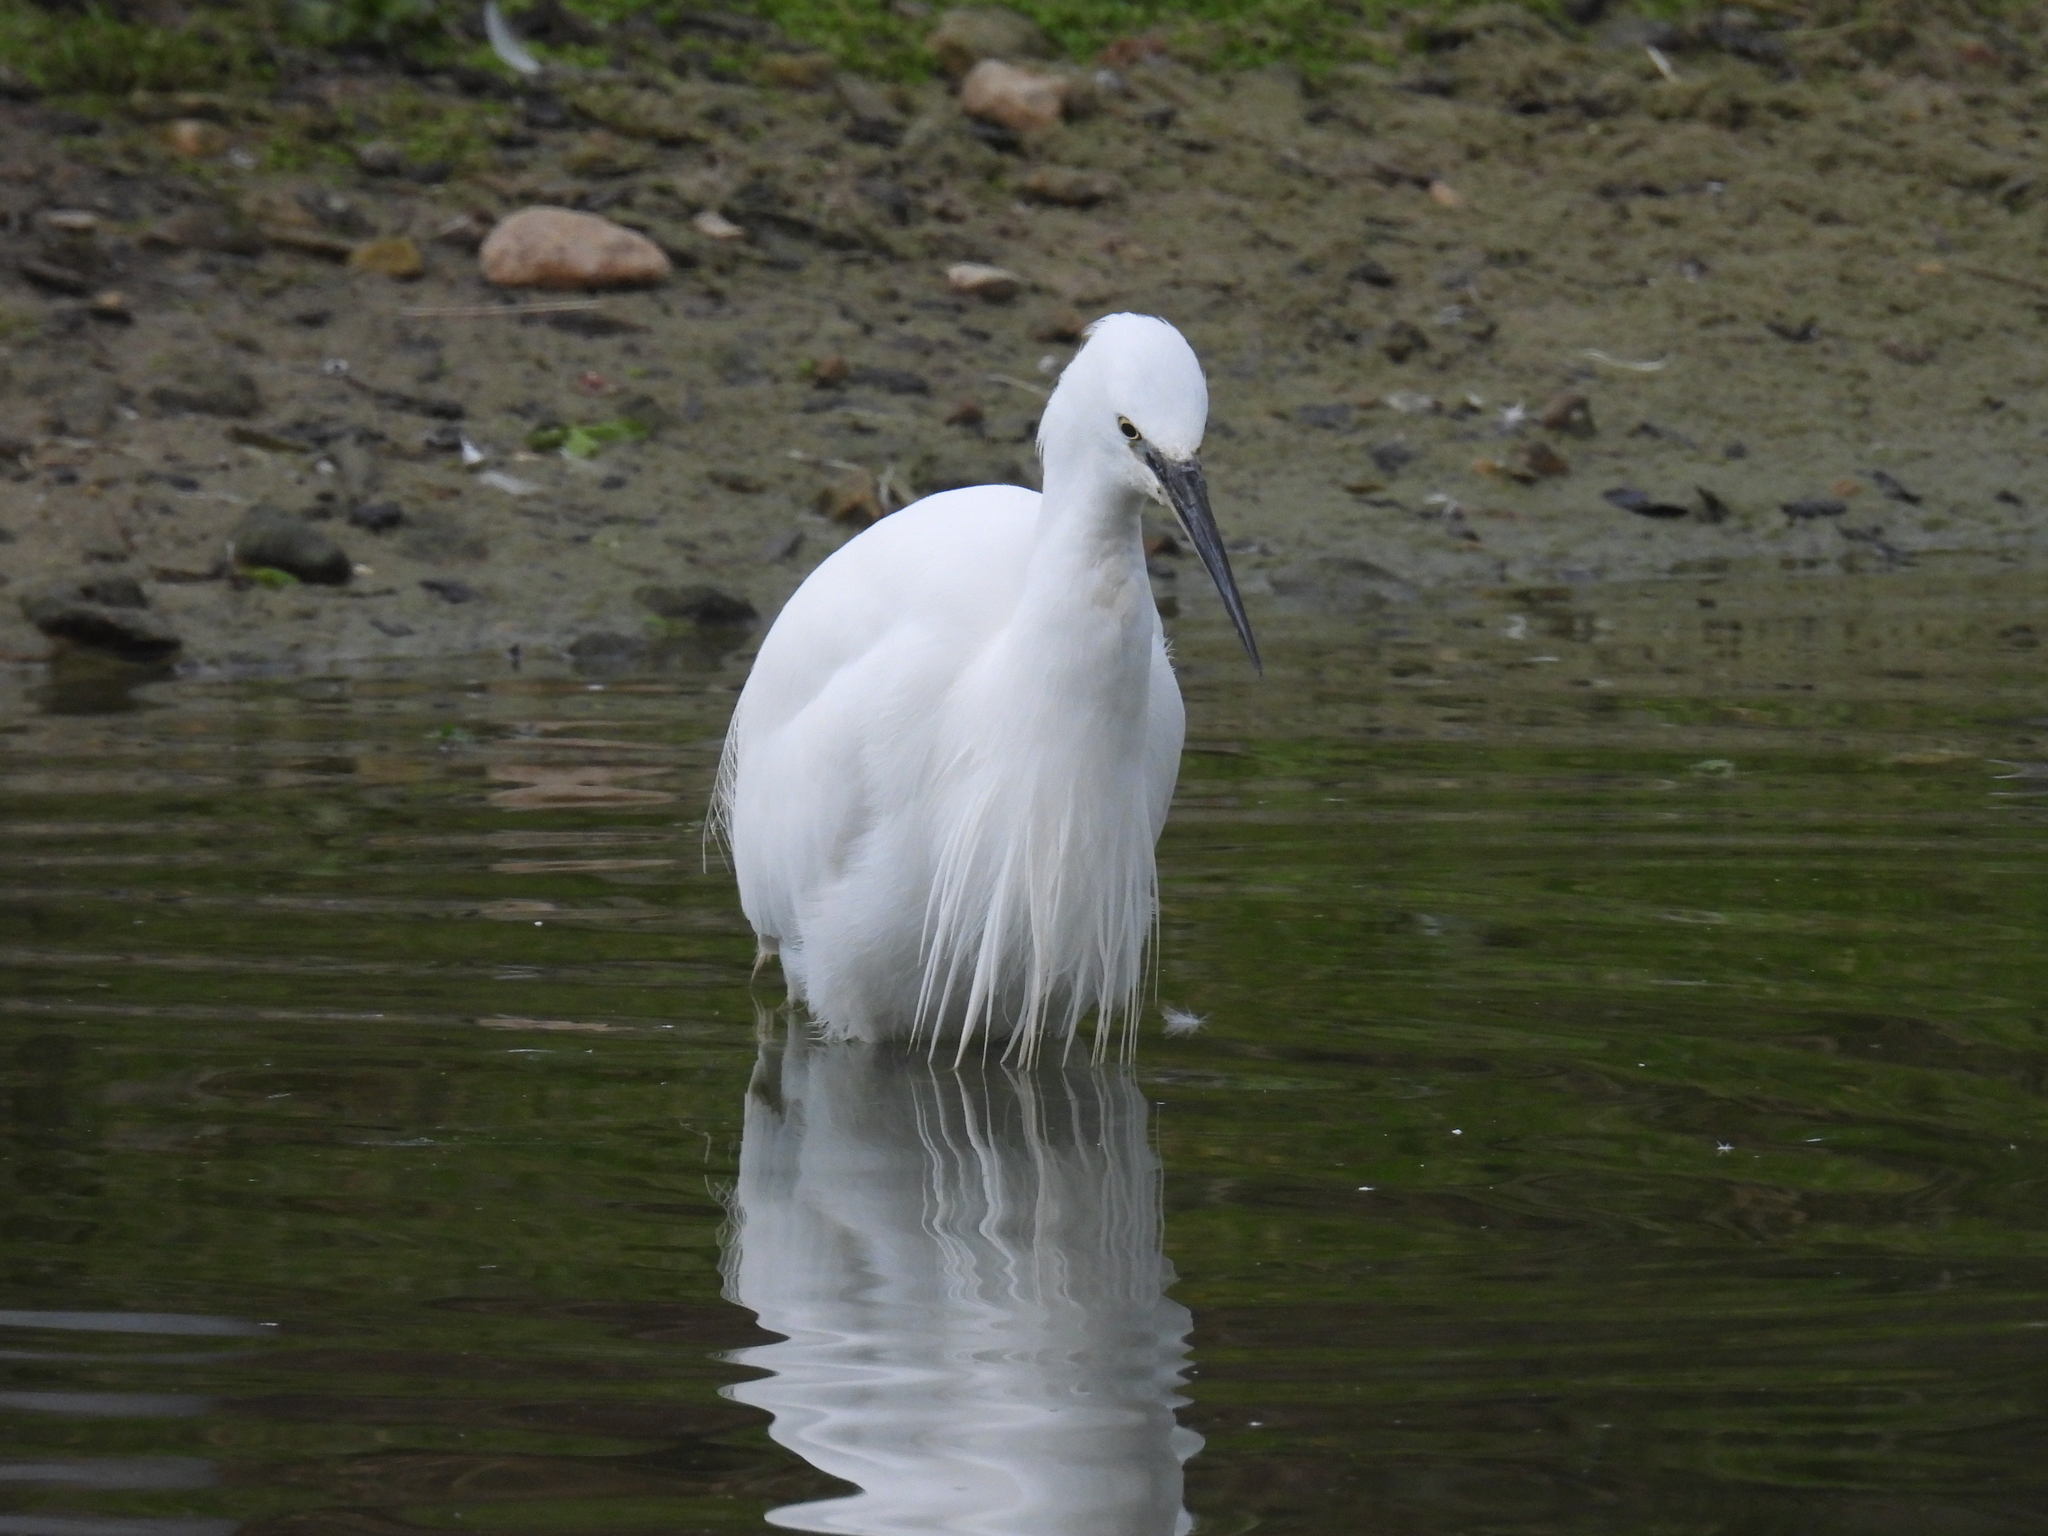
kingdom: Animalia
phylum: Chordata
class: Aves
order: Pelecaniformes
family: Ardeidae
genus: Egretta
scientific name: Egretta garzetta
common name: Little egret
